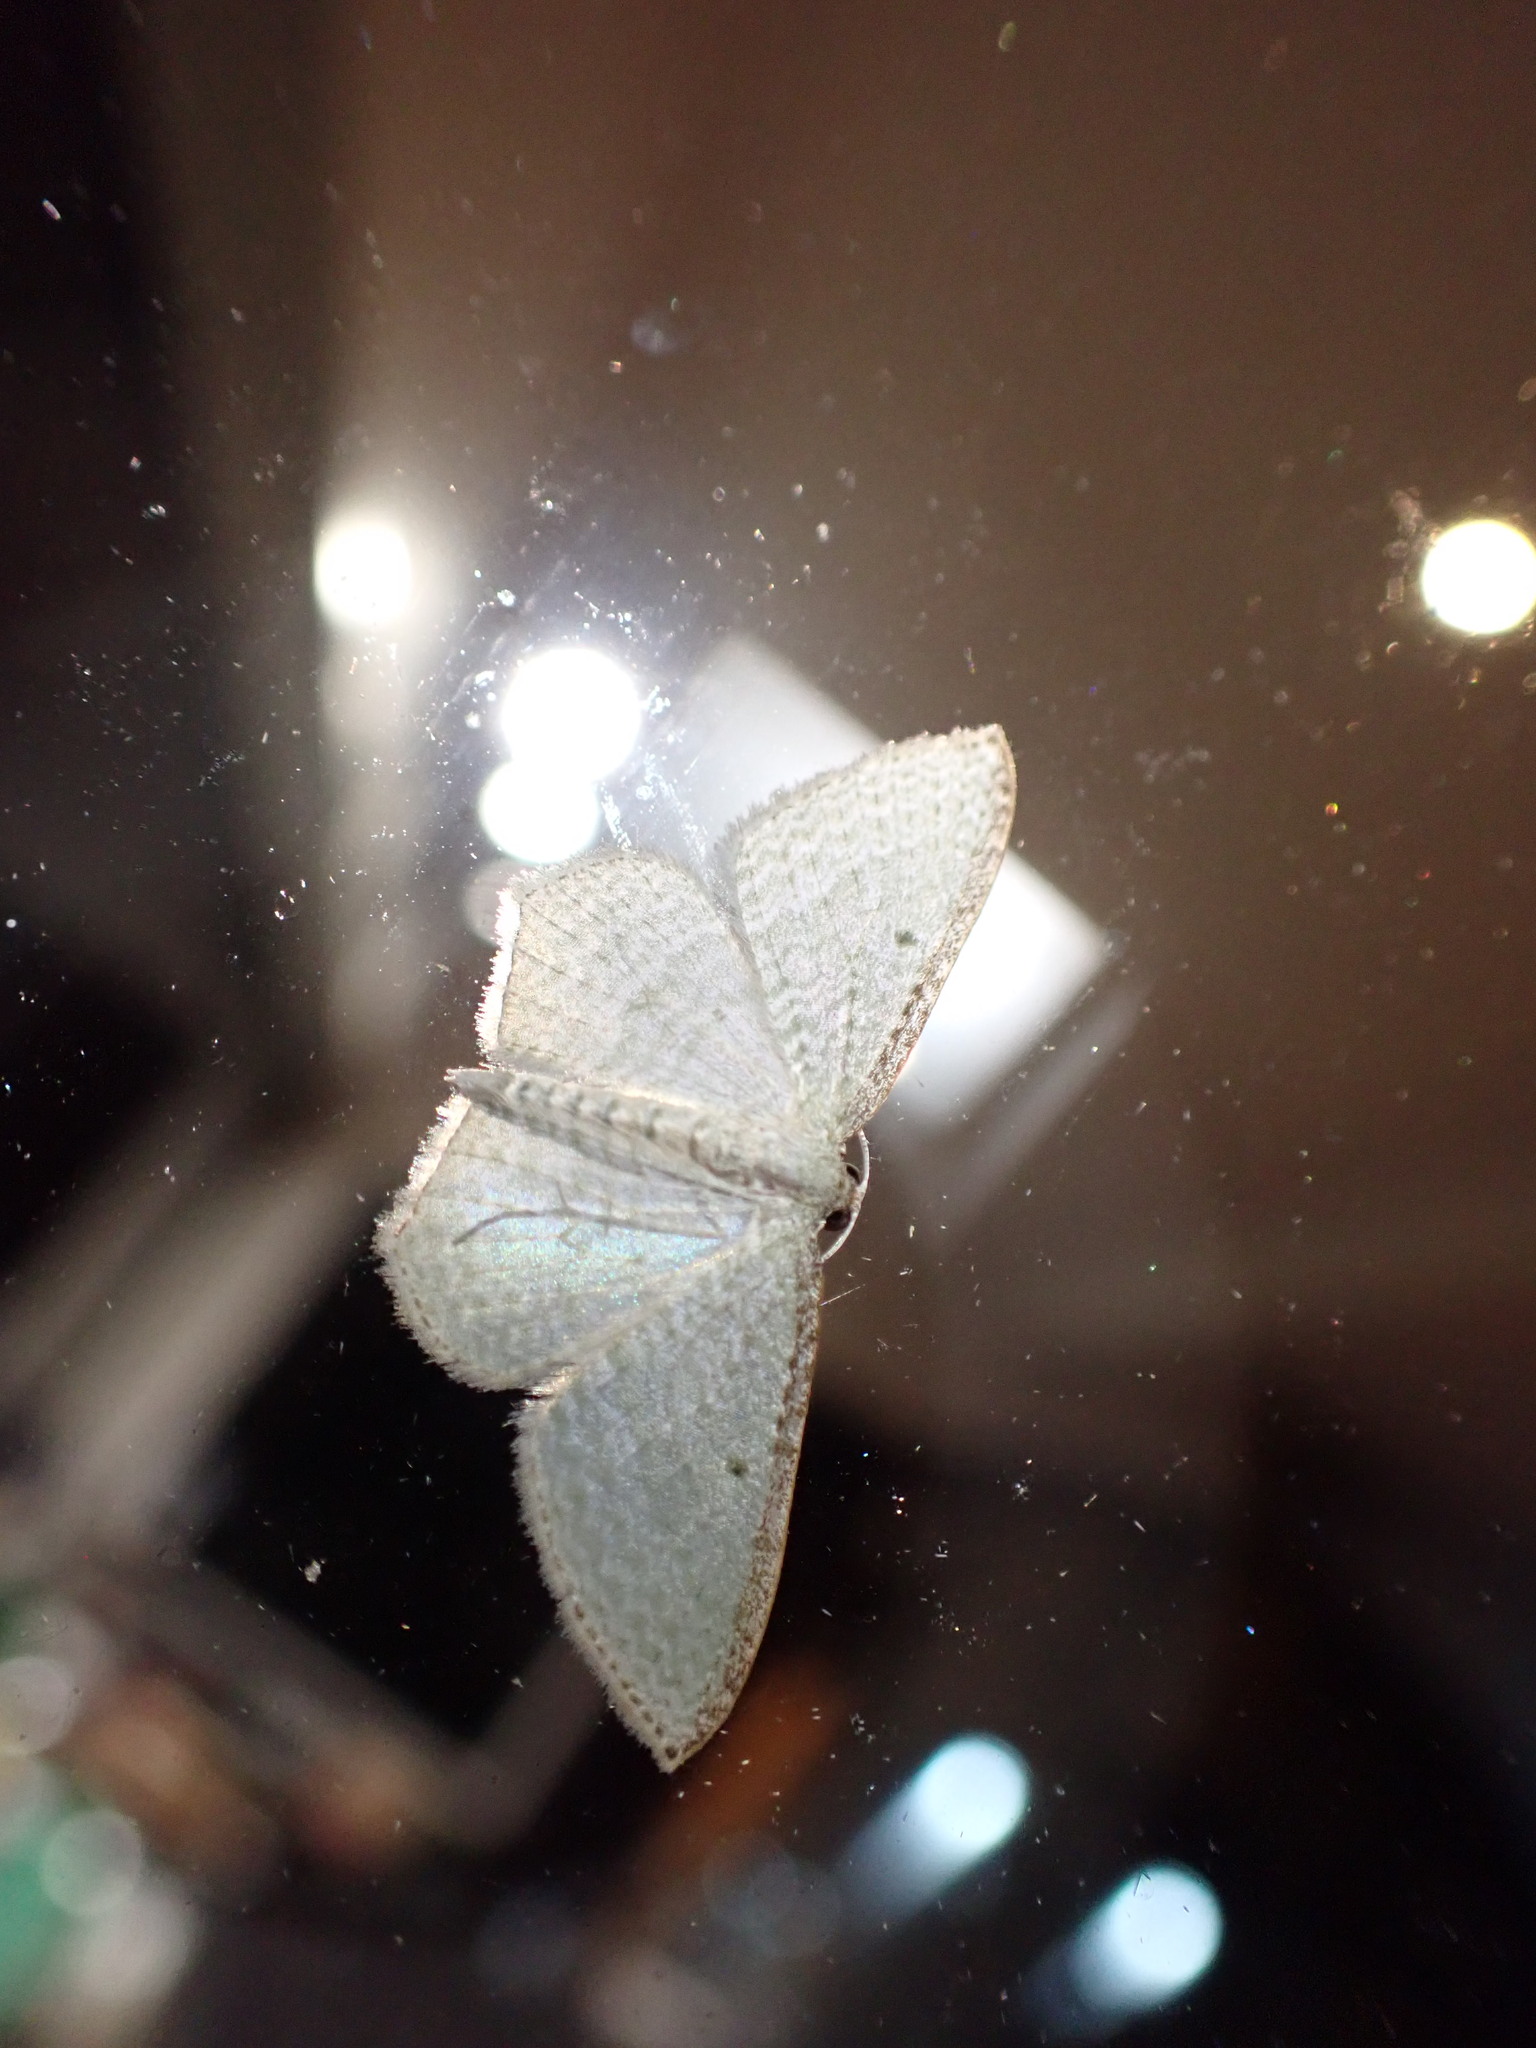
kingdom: Animalia
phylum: Arthropoda
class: Insecta
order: Lepidoptera
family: Geometridae
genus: Poecilasthena
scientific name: Poecilasthena pulchraria
